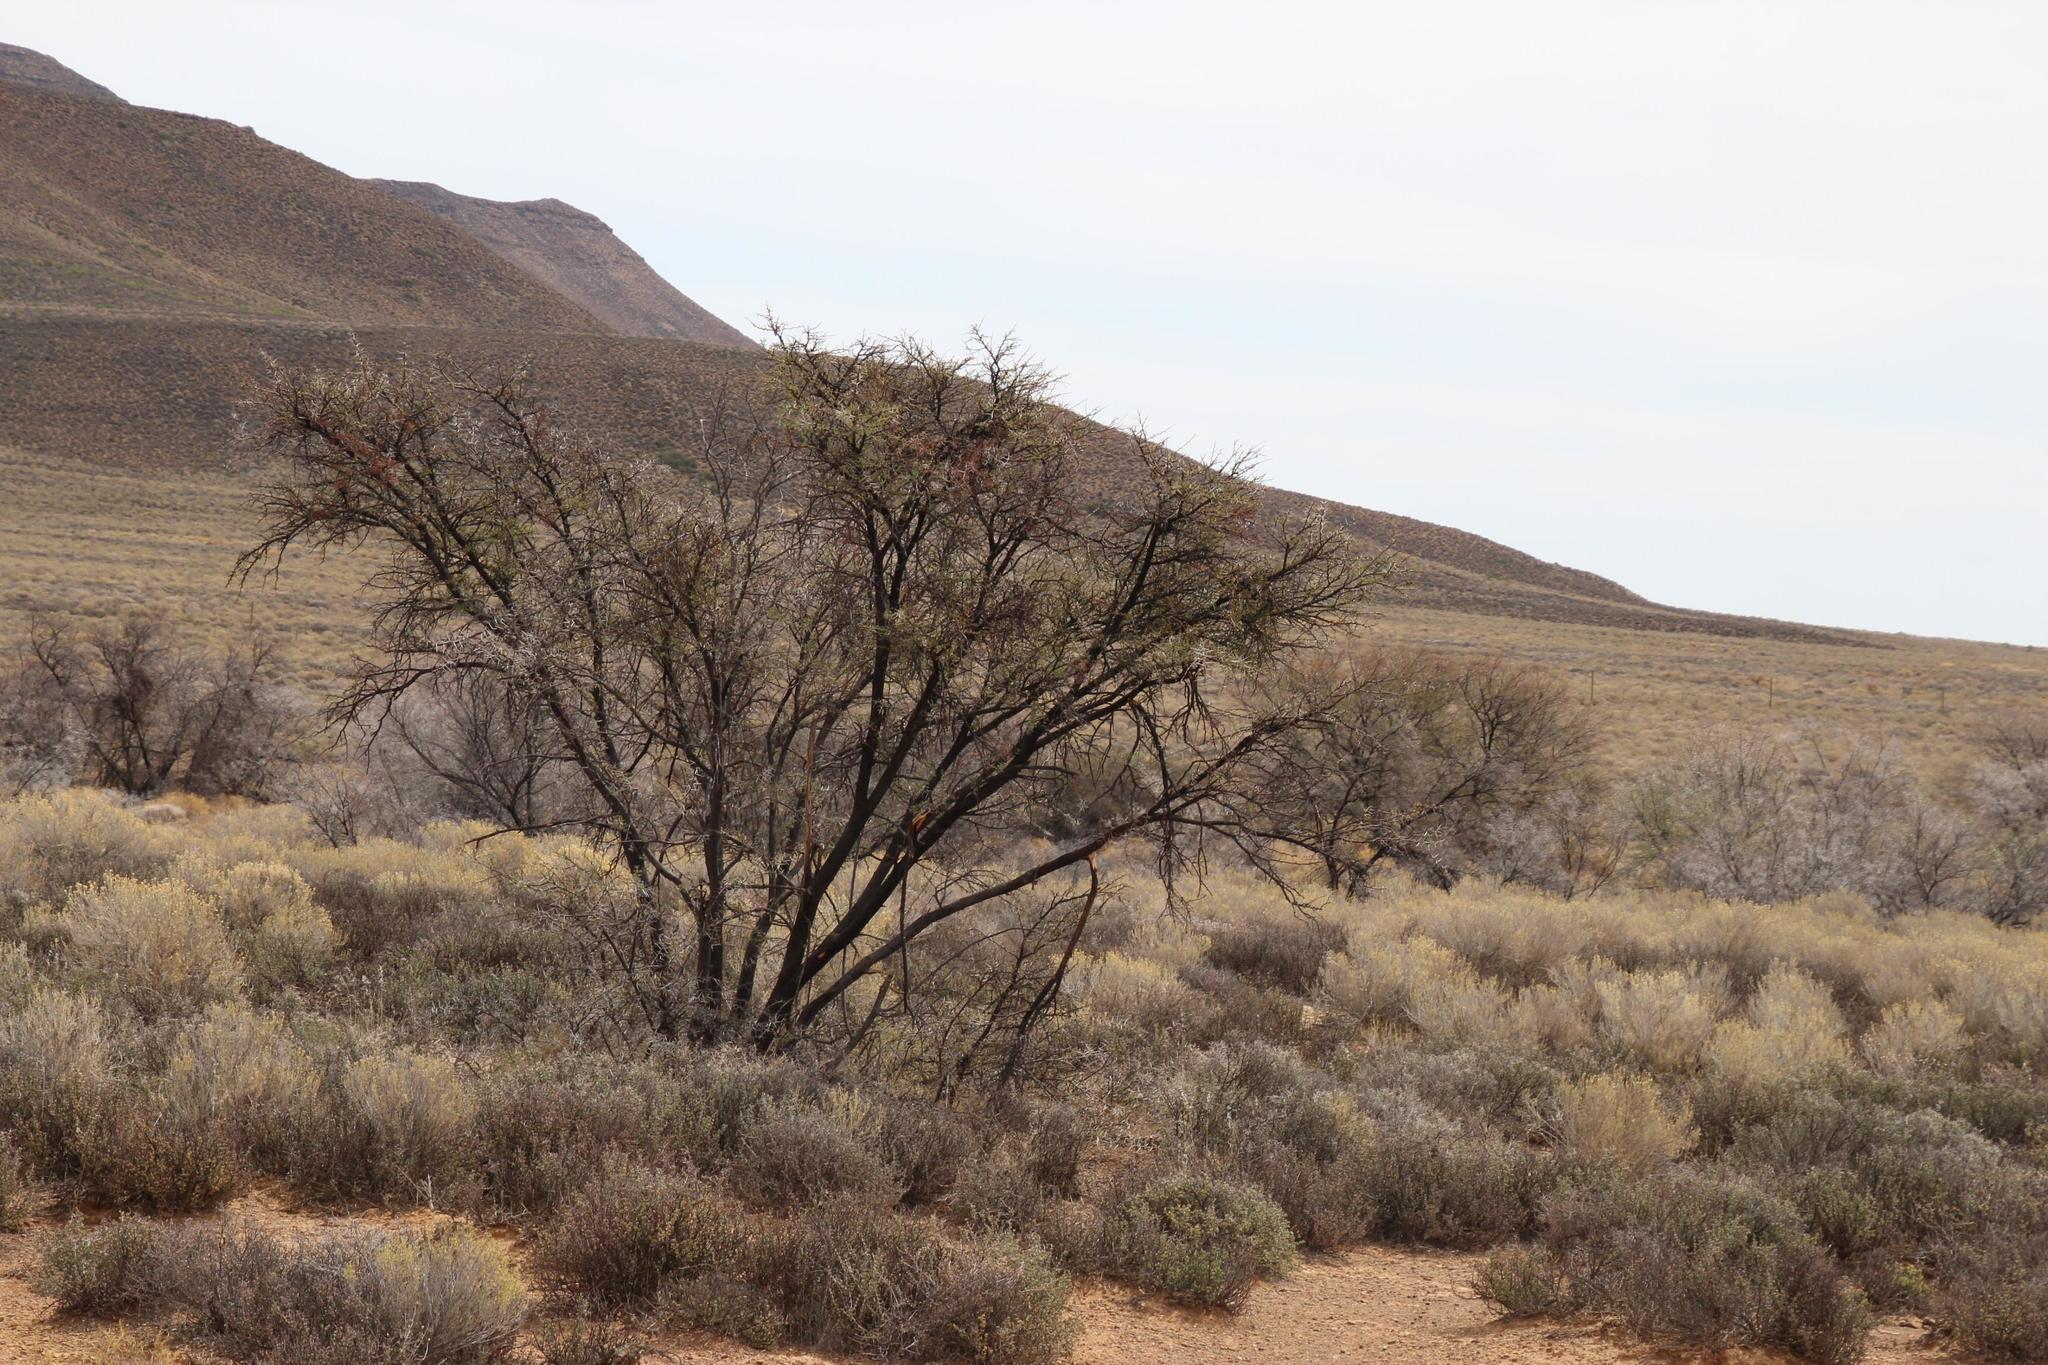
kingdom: Plantae
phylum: Tracheophyta
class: Magnoliopsida
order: Fabales
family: Fabaceae
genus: Vachellia
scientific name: Vachellia karroo
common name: Sweet thorn
